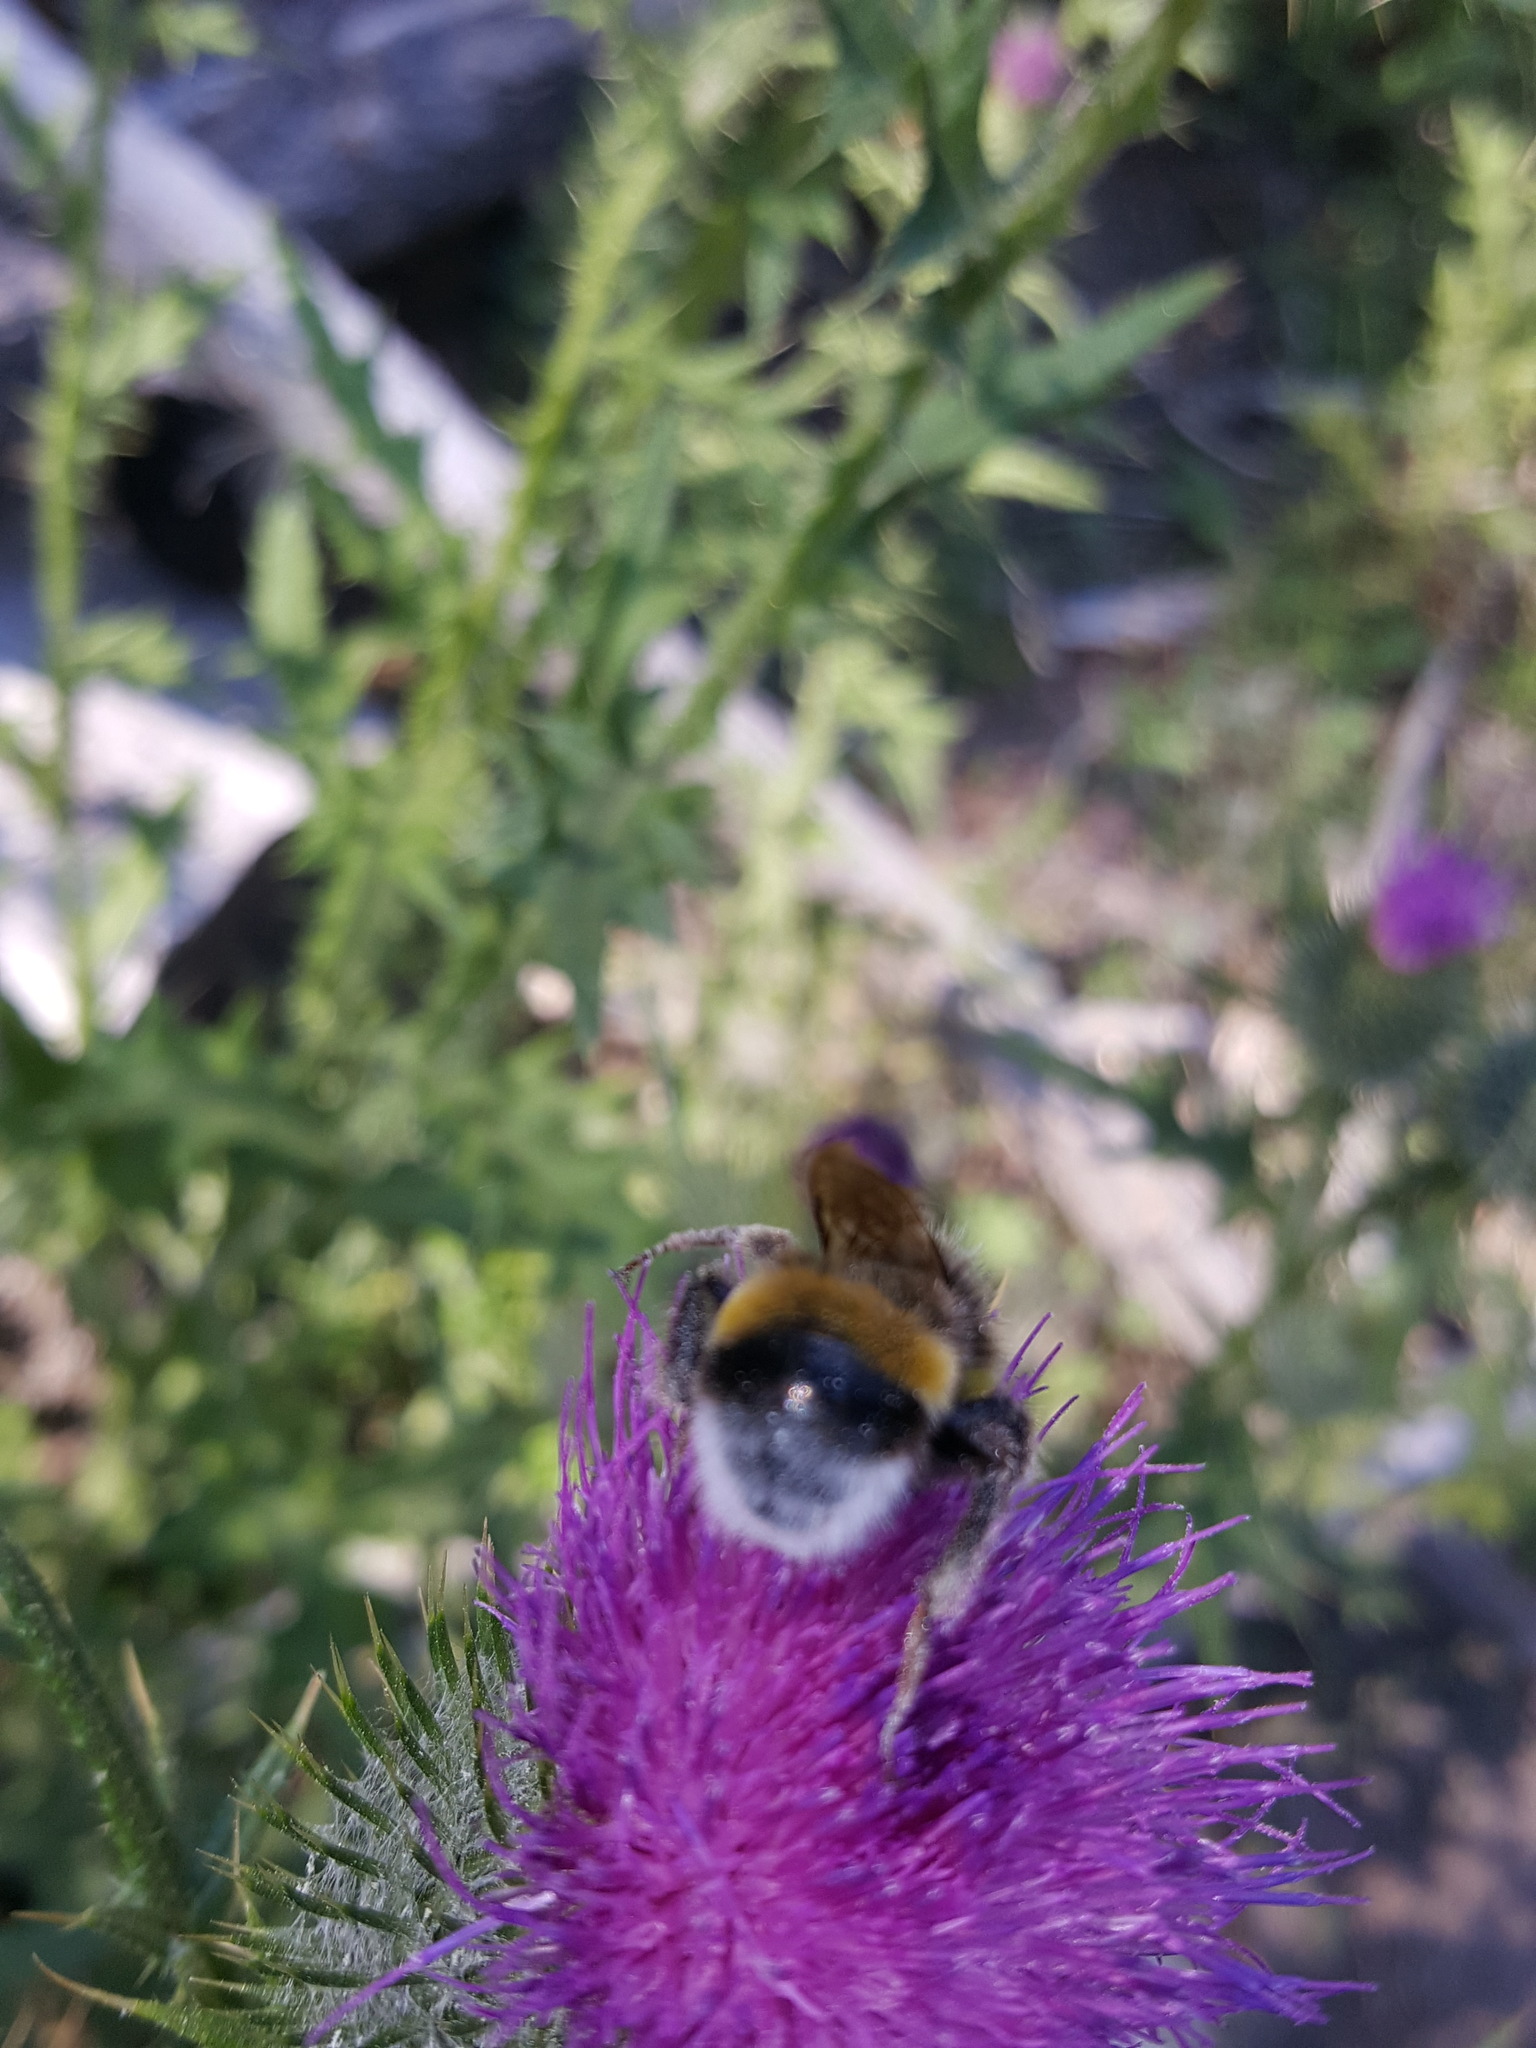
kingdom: Animalia
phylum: Arthropoda
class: Insecta
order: Hymenoptera
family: Apidae
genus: Bombus
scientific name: Bombus terrestris
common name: Buff-tailed bumblebee
